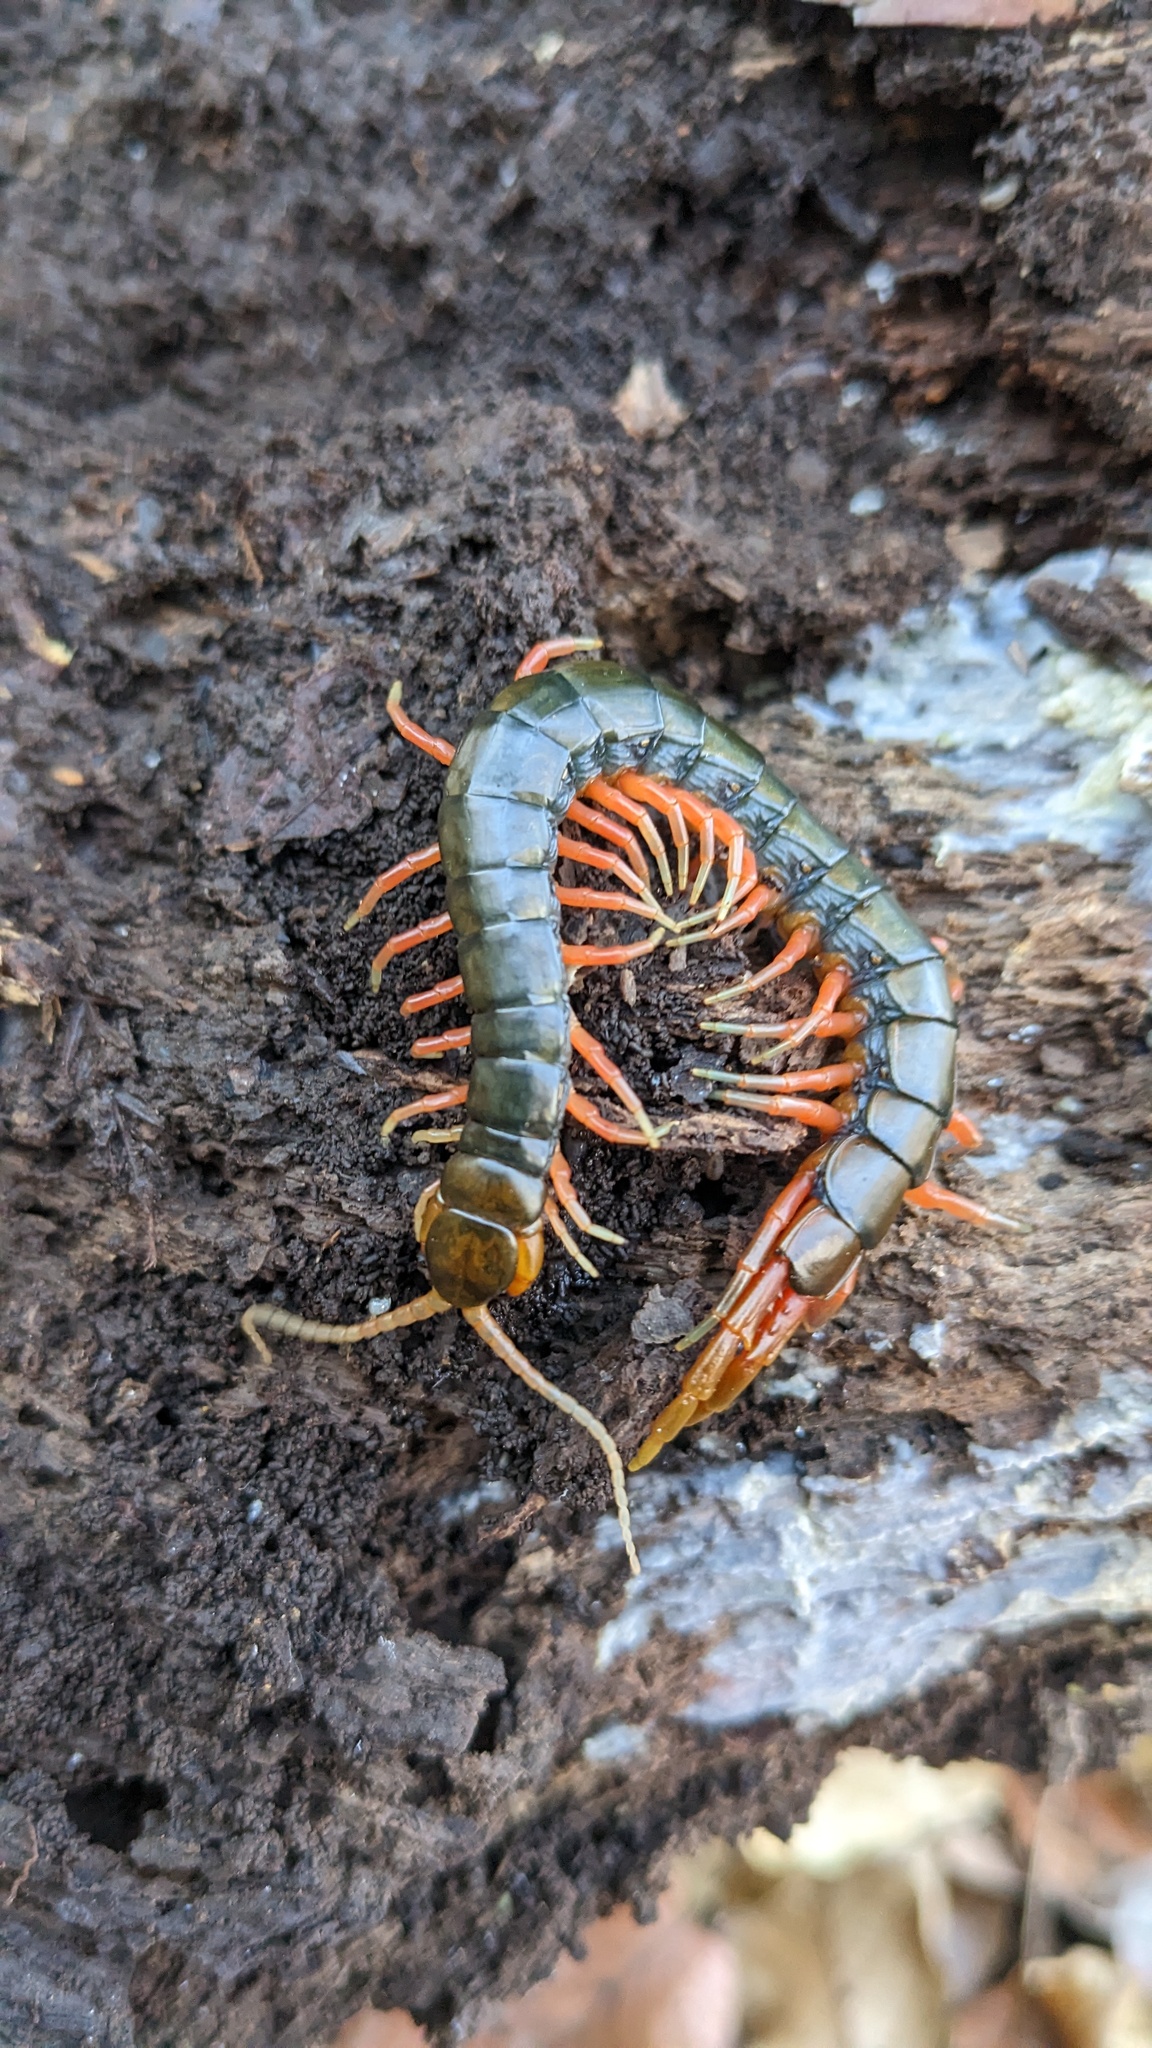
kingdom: Animalia
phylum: Arthropoda
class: Chilopoda
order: Scolopendromorpha
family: Scolopendridae
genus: Scolopendra
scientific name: Scolopendra japonica
